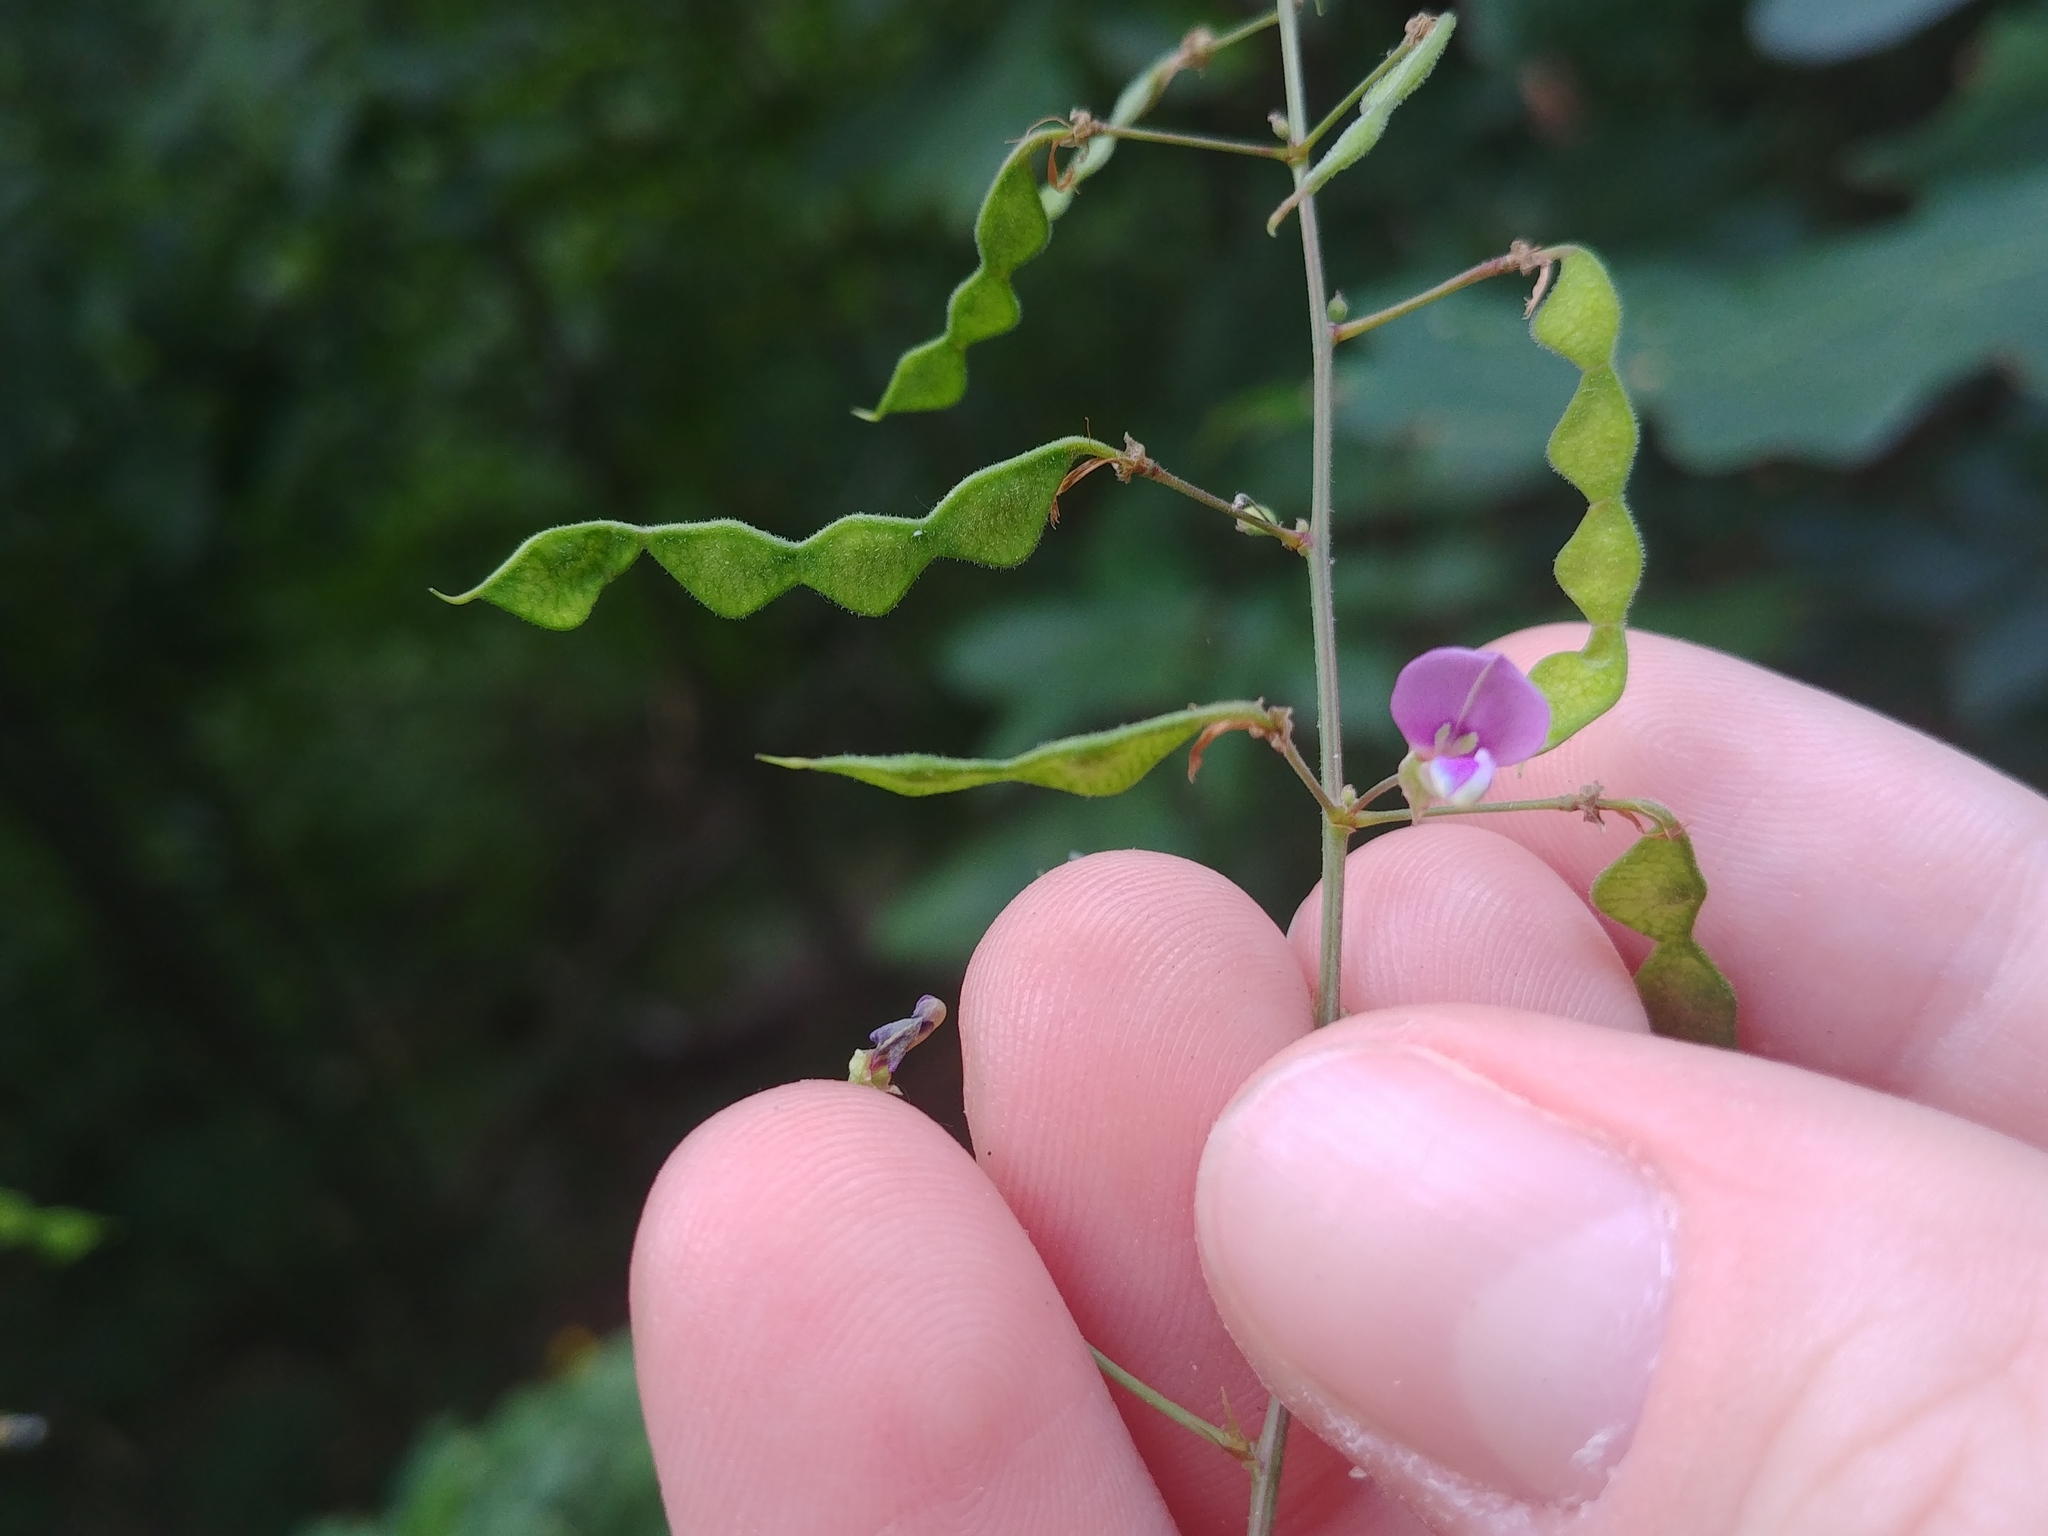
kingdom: Plantae
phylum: Tracheophyta
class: Magnoliopsida
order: Fabales
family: Fabaceae
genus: Desmodium
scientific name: Desmodium paniculatum
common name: Panicled tick-clover
